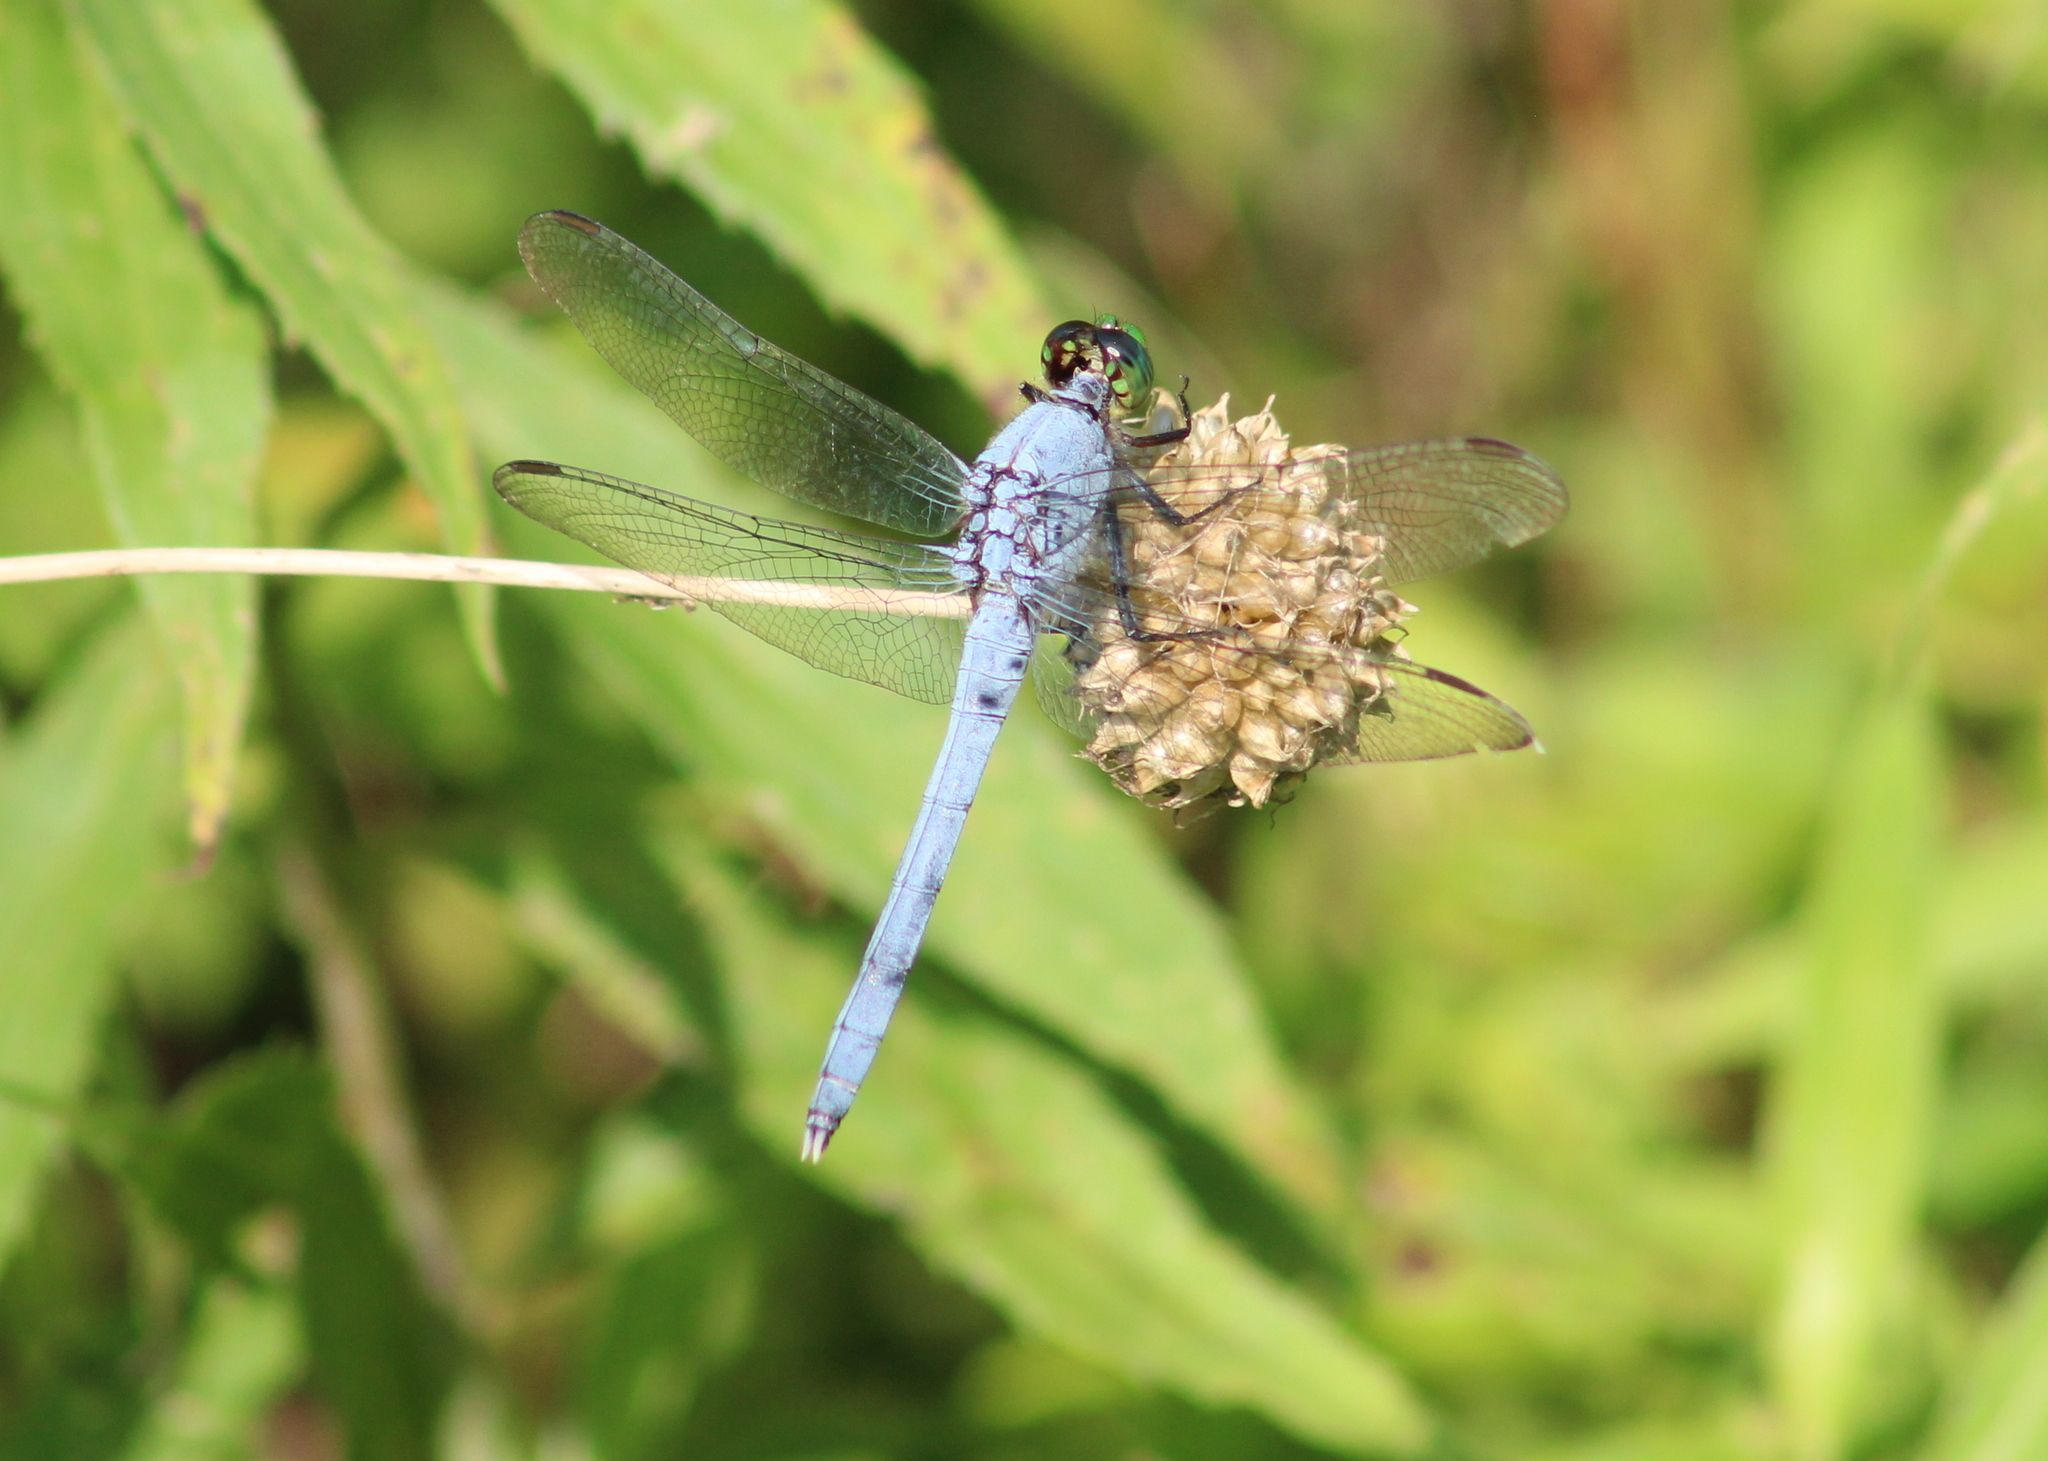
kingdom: Animalia
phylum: Arthropoda
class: Insecta
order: Odonata
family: Libellulidae
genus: Erythemis
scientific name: Erythemis simplicicollis
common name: Eastern pondhawk
